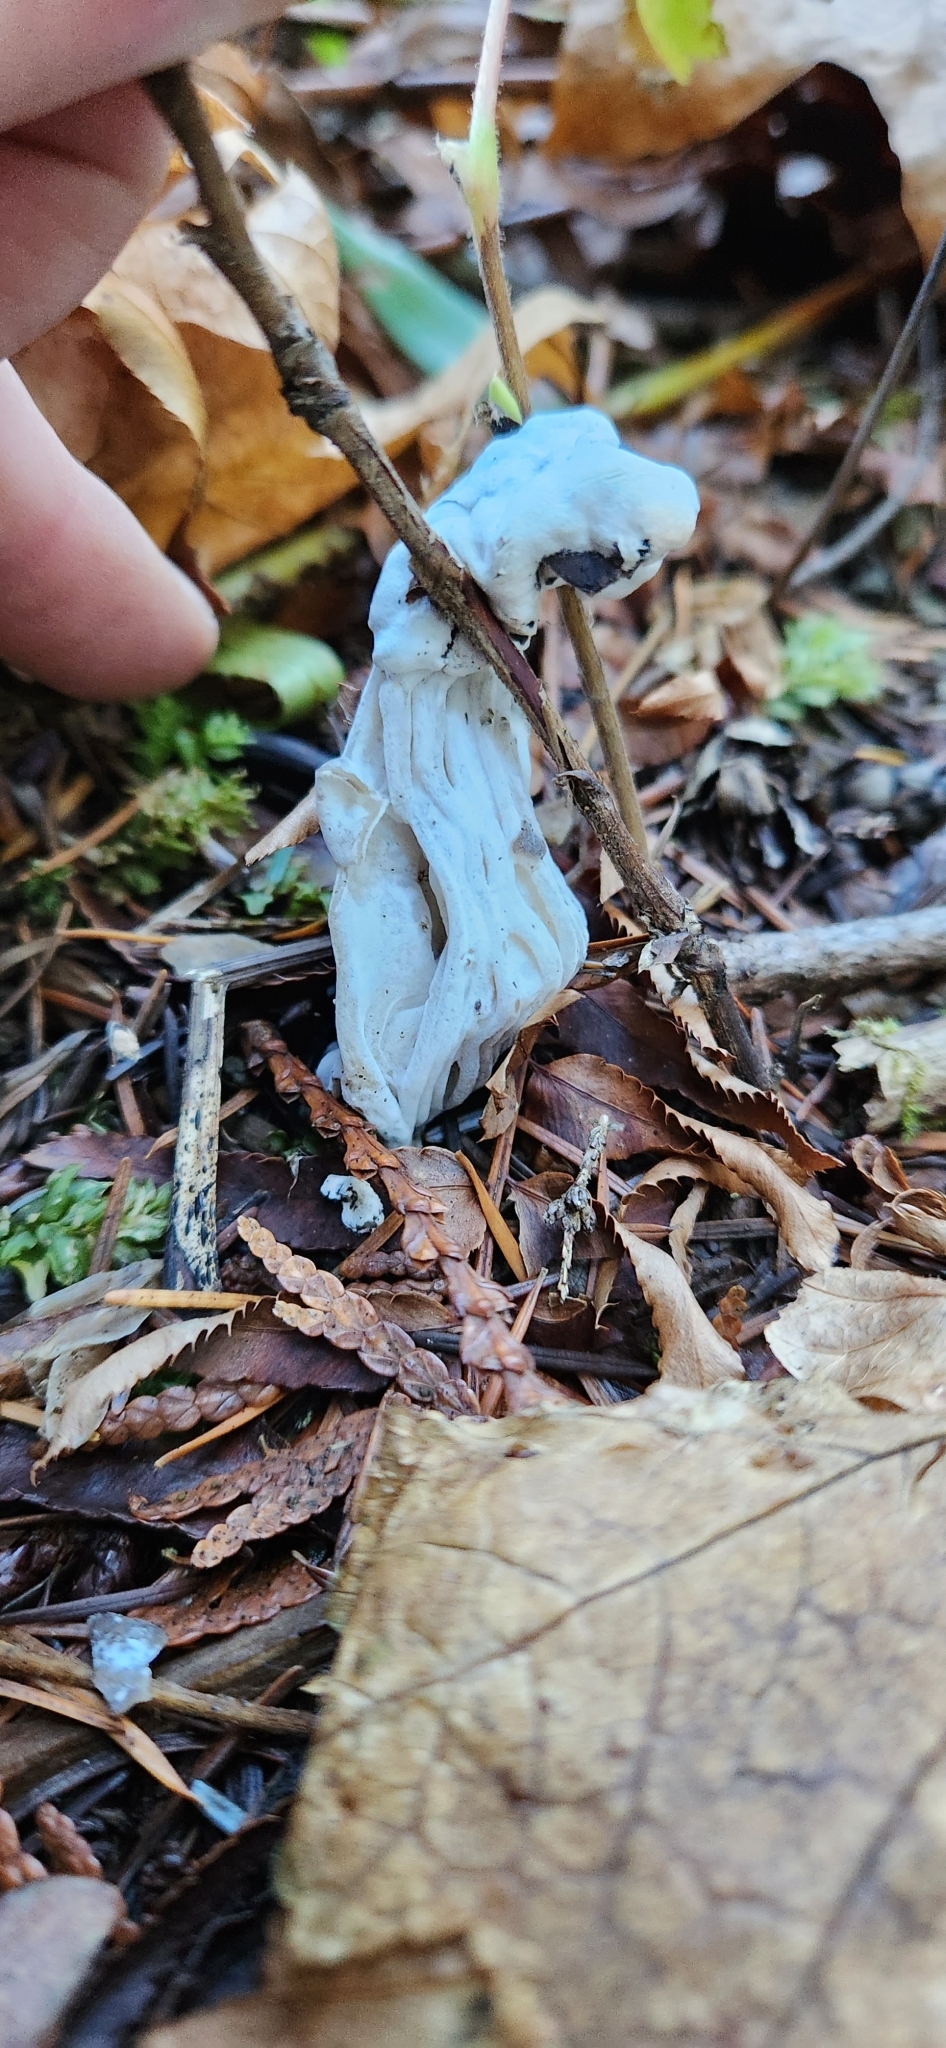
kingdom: Fungi
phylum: Ascomycota
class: Sordariomycetes
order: Hypocreales
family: Hypocreaceae
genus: Hypomyces
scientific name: Hypomyces cervinus
